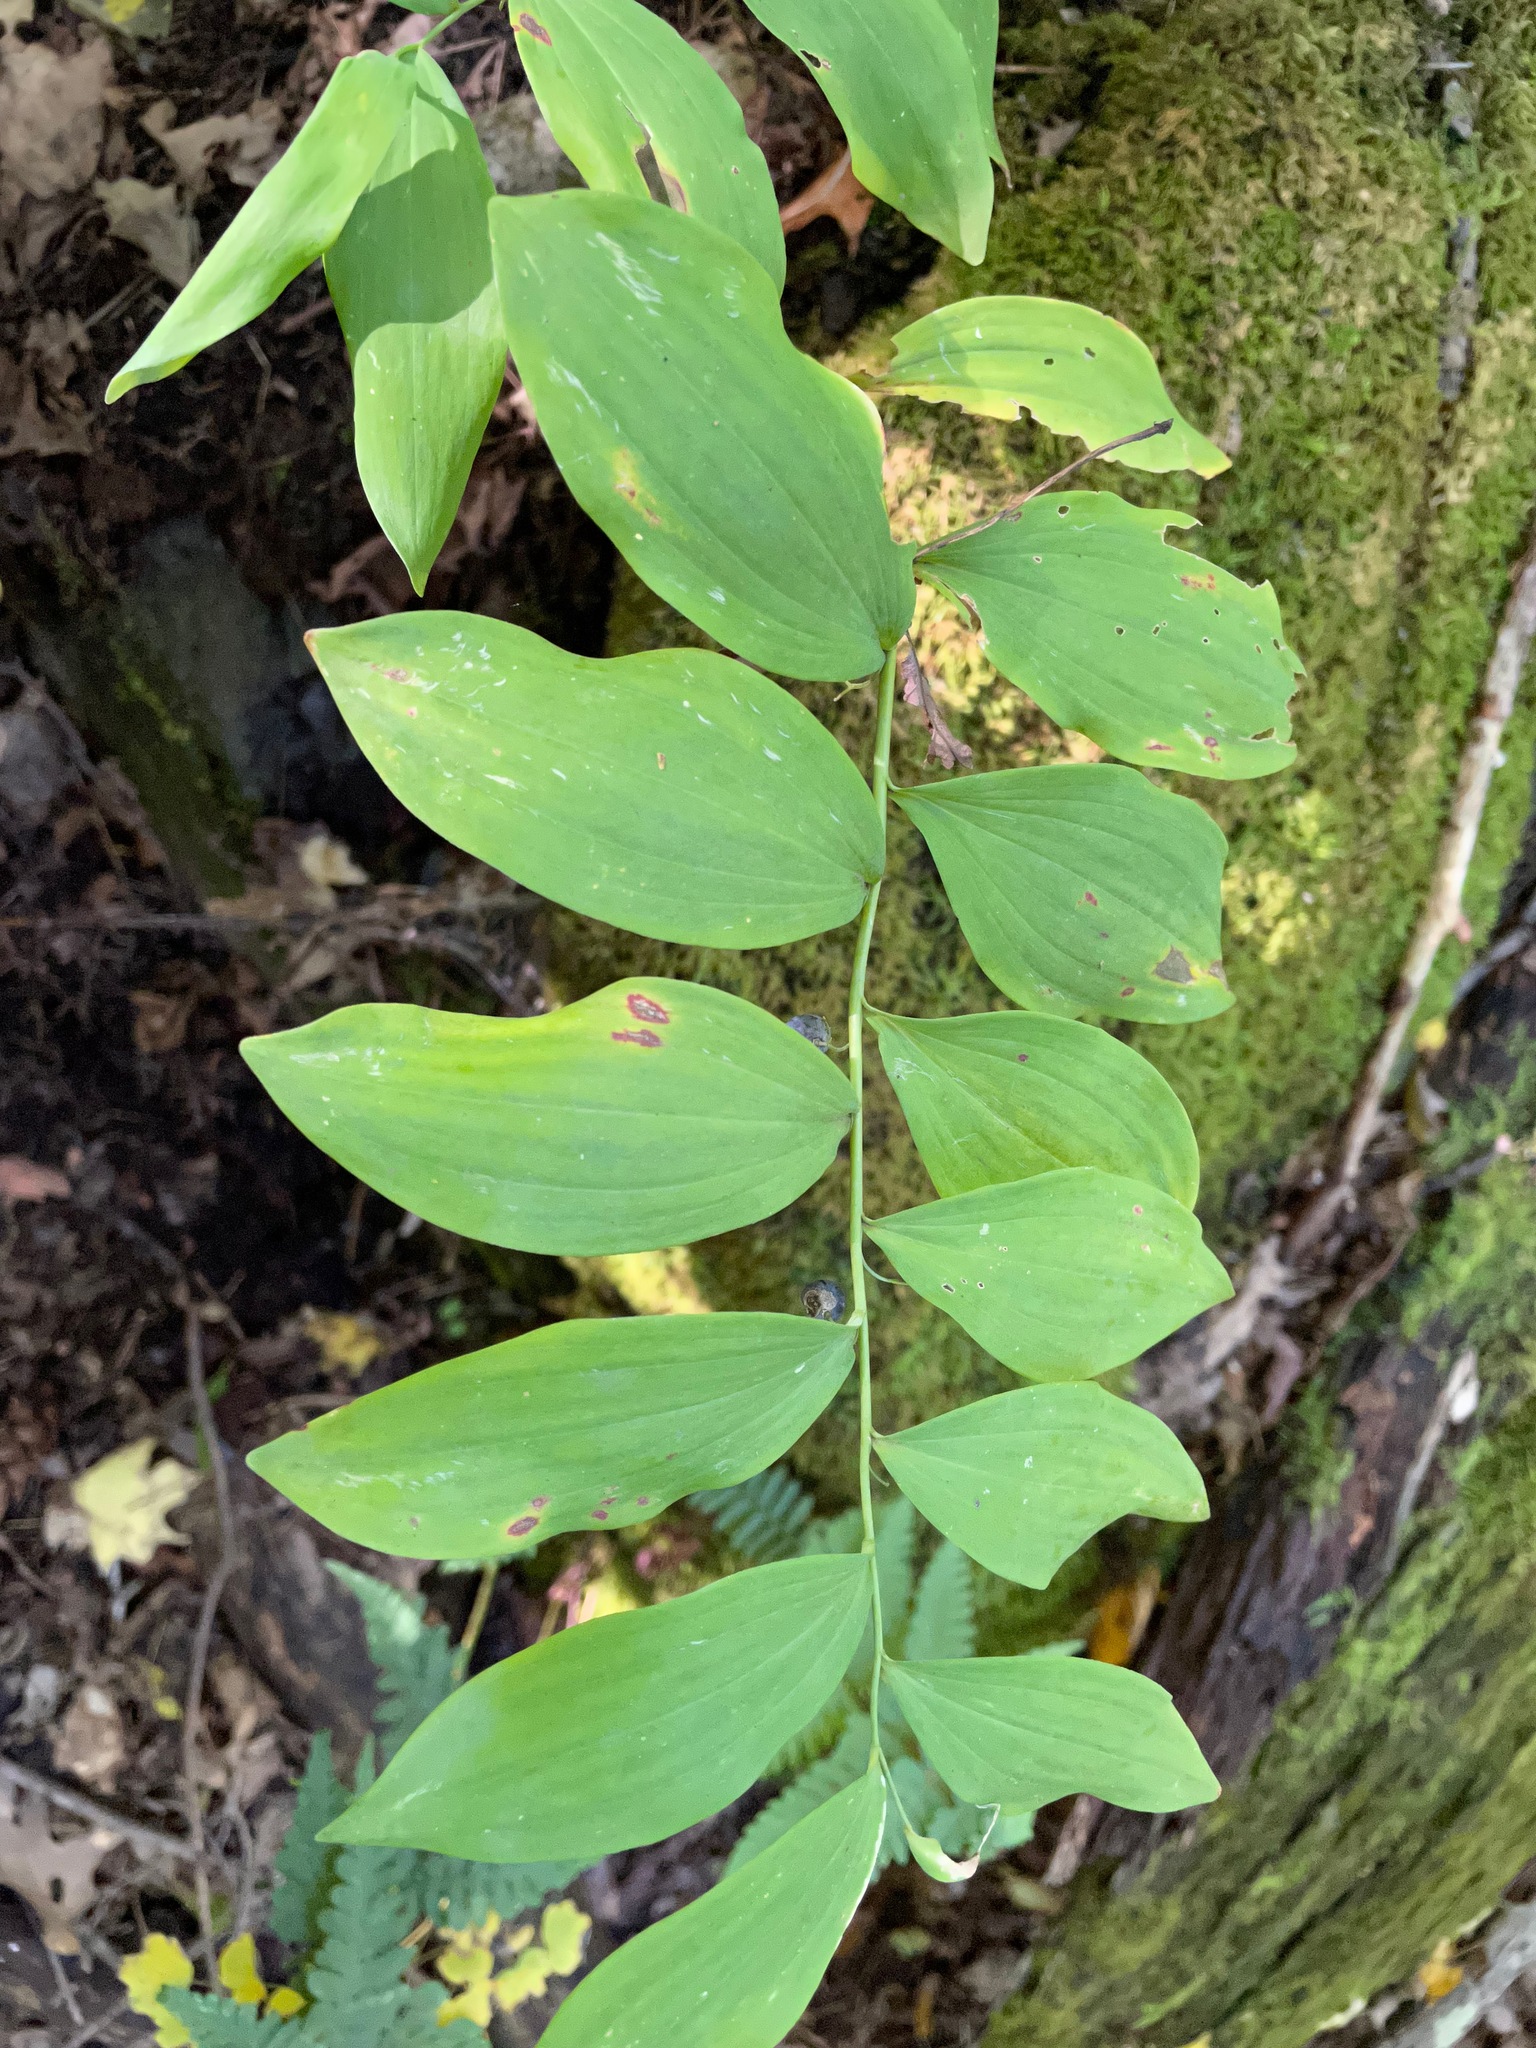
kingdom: Plantae
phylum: Tracheophyta
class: Liliopsida
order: Asparagales
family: Asparagaceae
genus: Polygonatum
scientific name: Polygonatum pubescens
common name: Downy solomon's seal
